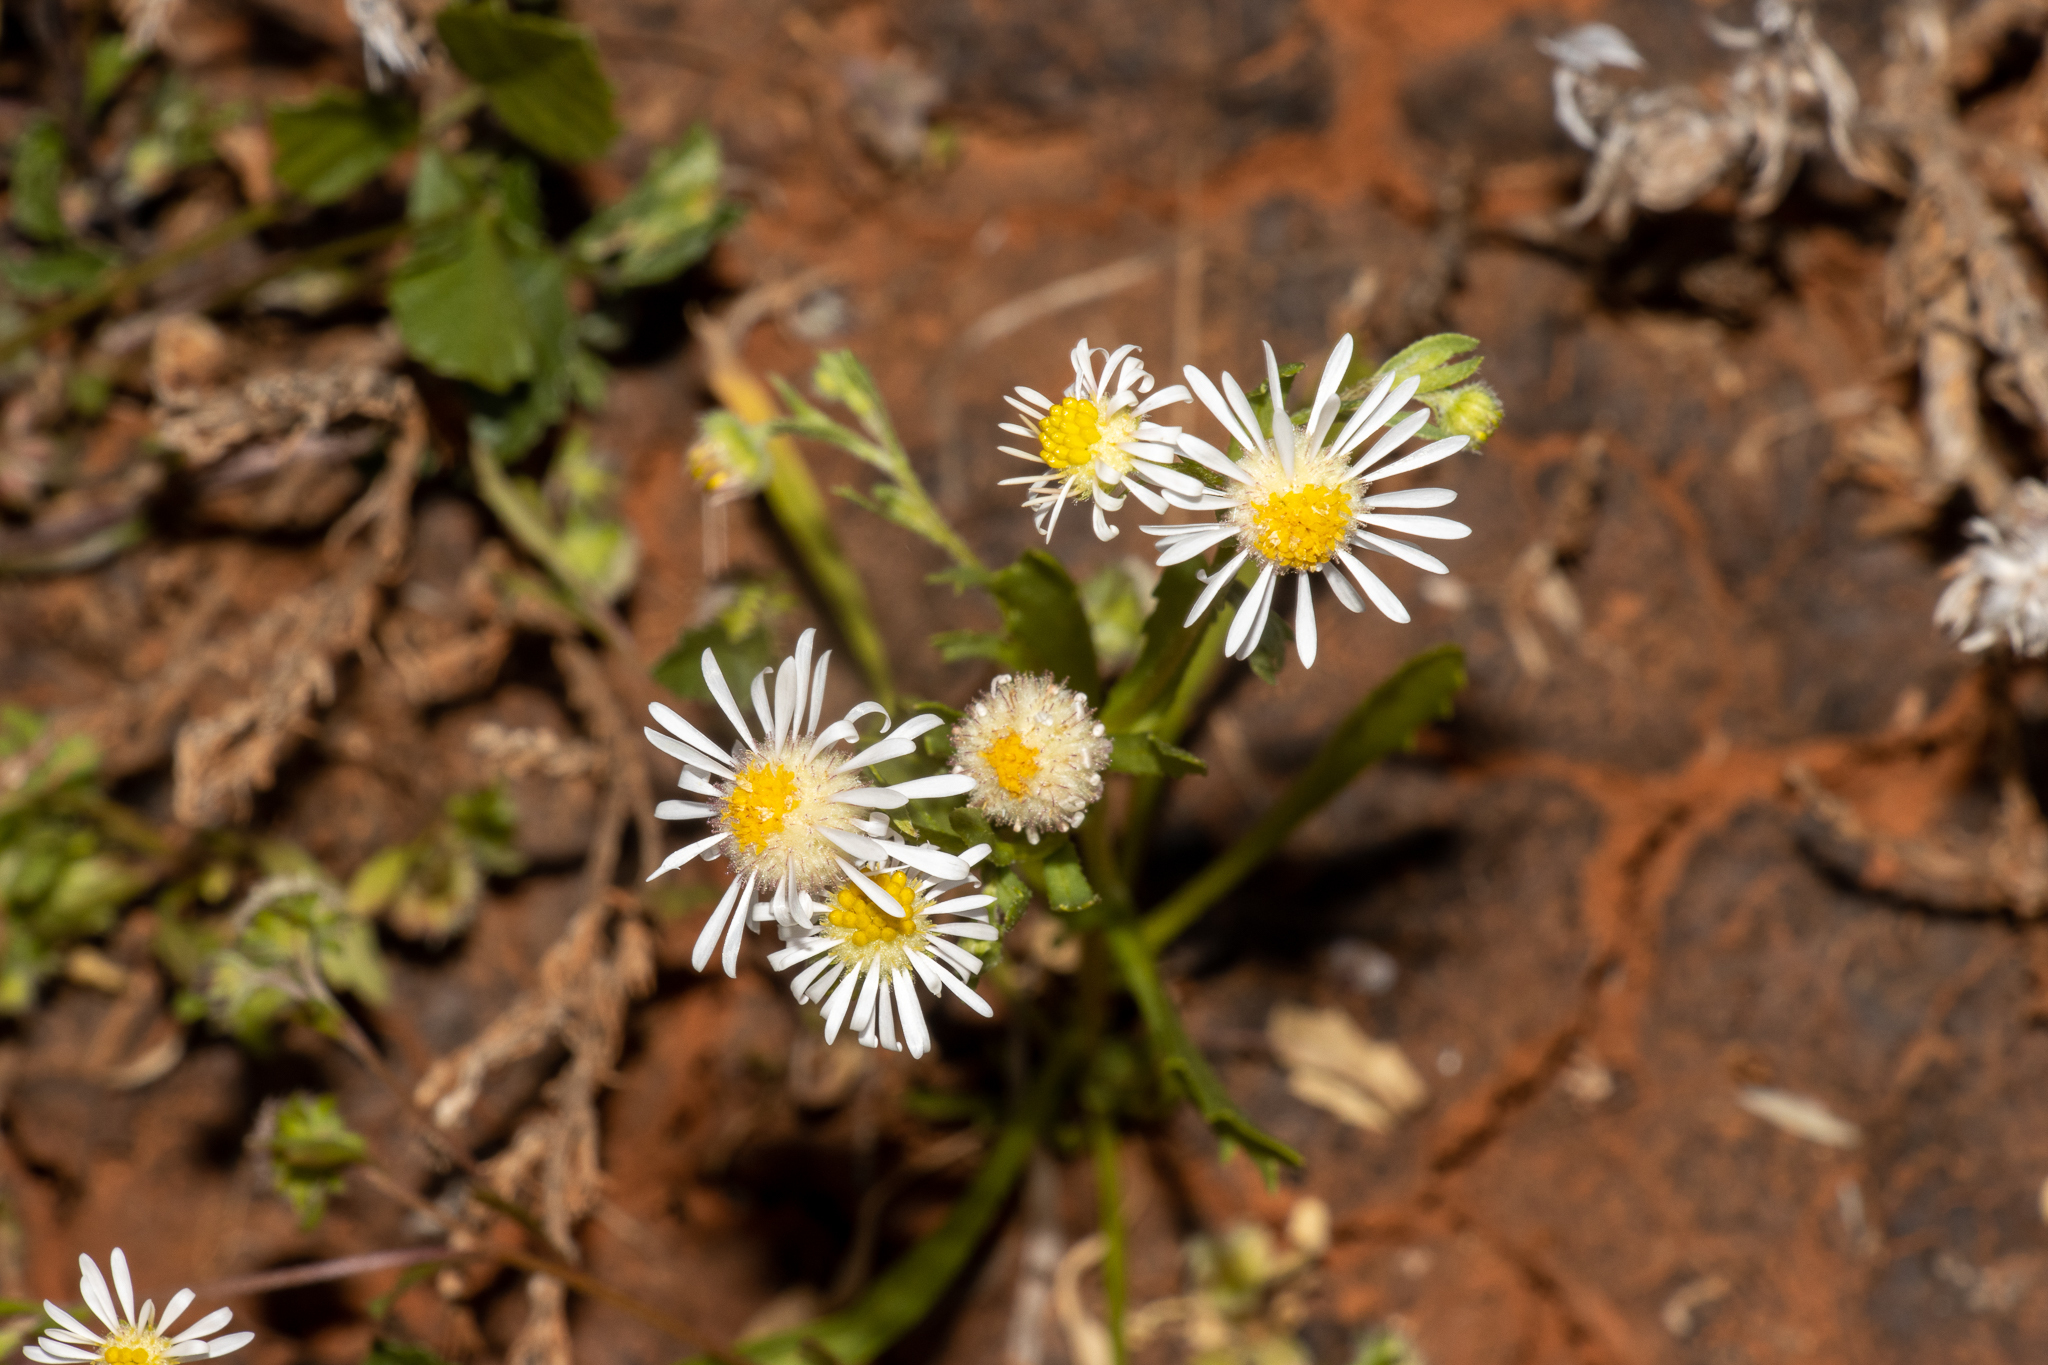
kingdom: Plantae
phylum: Tracheophyta
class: Magnoliopsida
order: Asterales
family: Asteraceae
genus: Calotis
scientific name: Calotis plumulifera
